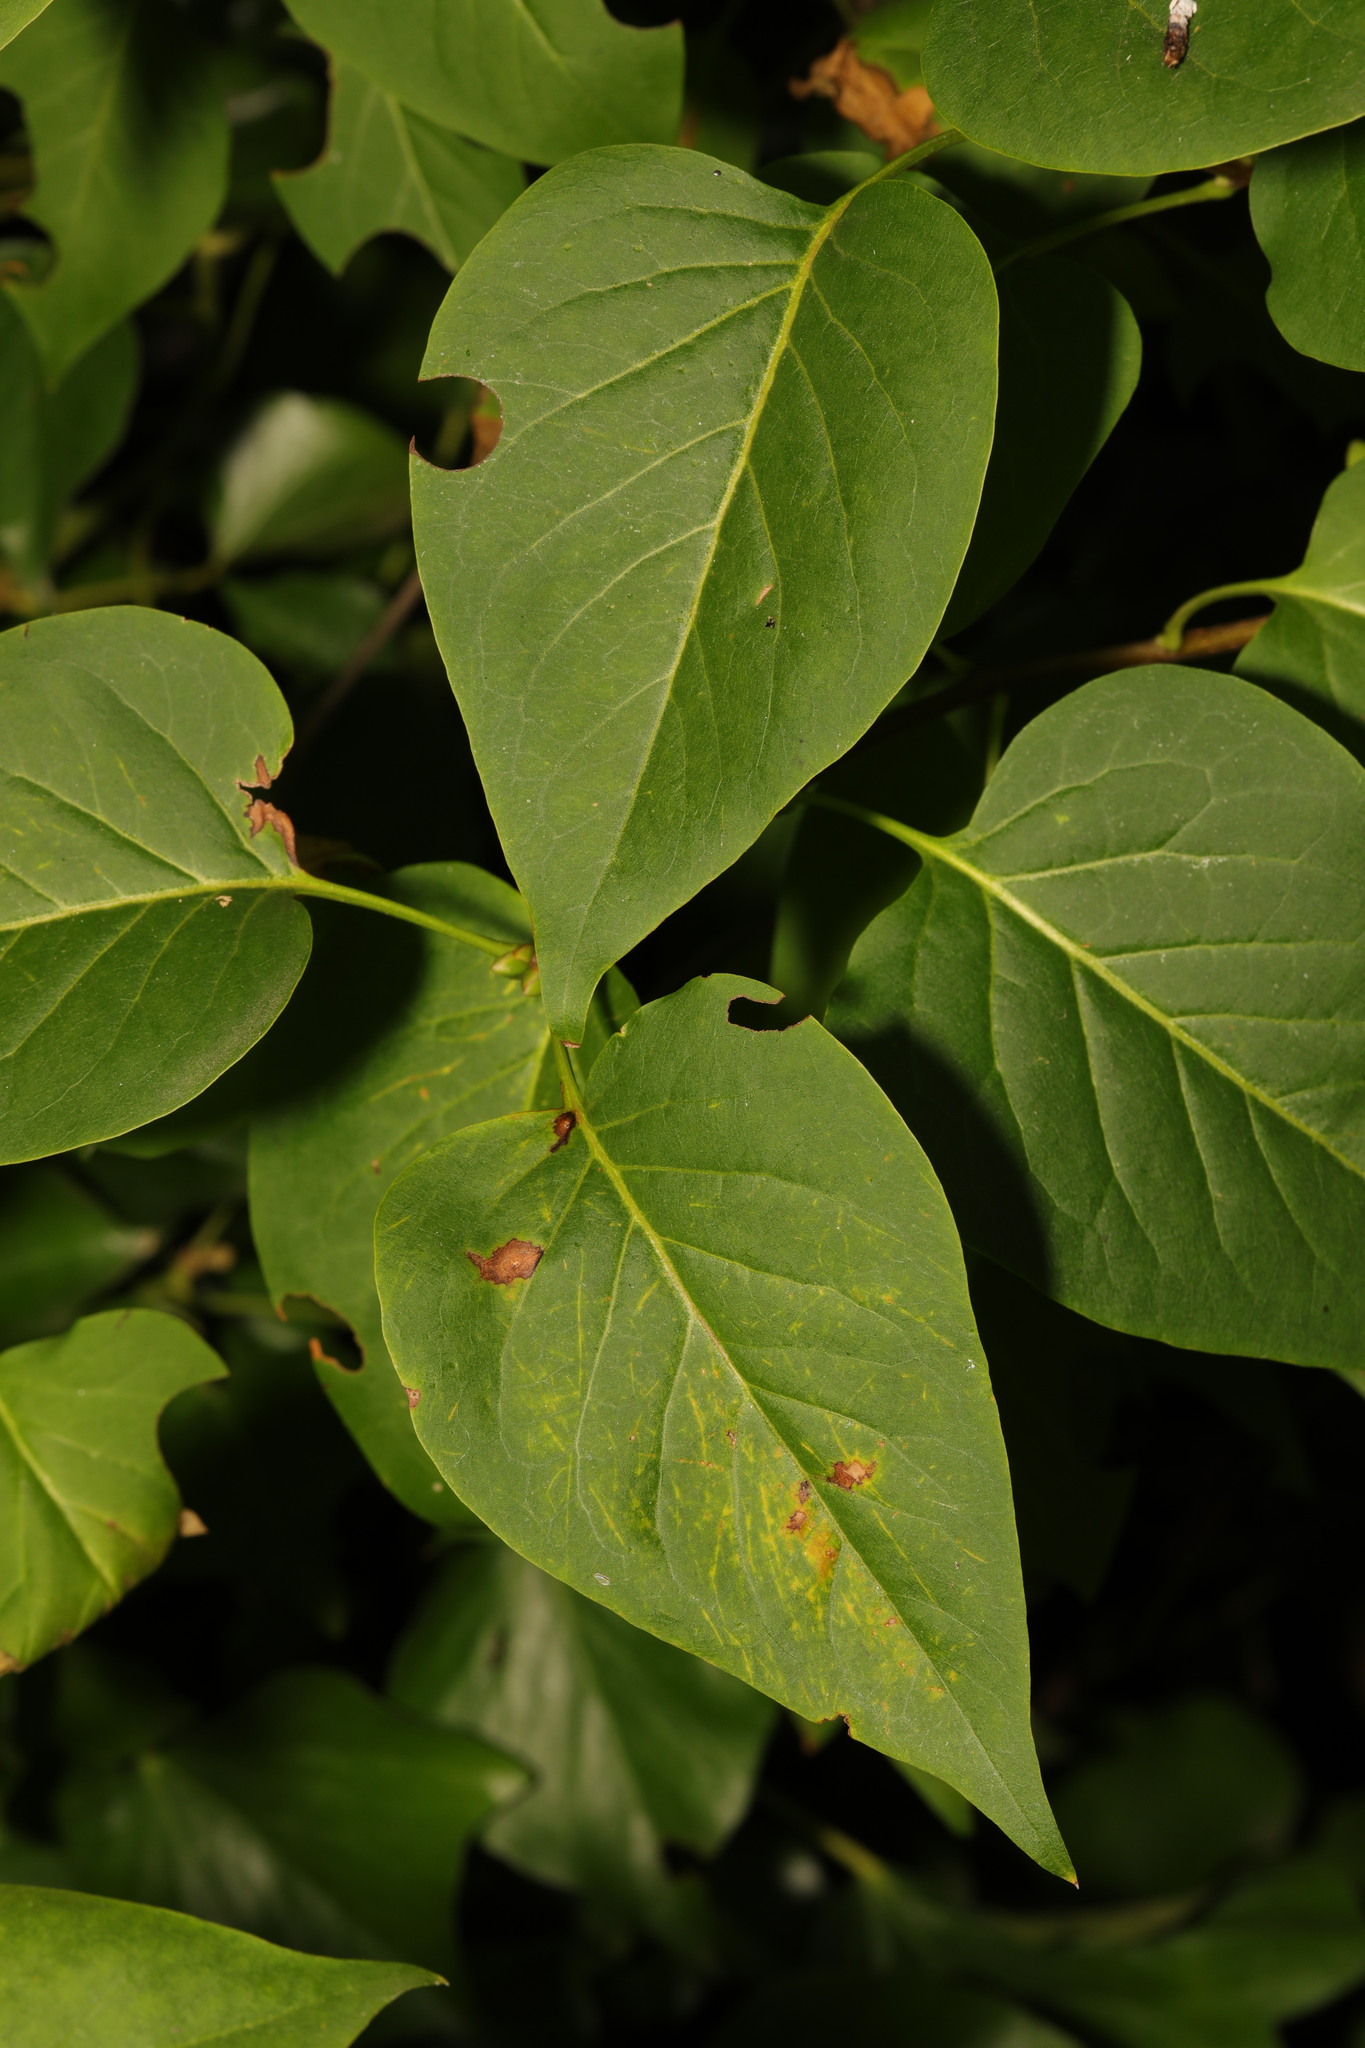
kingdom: Plantae
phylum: Tracheophyta
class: Magnoliopsida
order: Lamiales
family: Oleaceae
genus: Syringa
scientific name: Syringa vulgaris
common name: Common lilac
